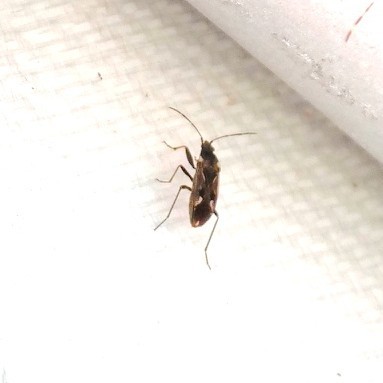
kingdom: Animalia
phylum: Arthropoda
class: Insecta
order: Hemiptera
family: Rhyparochromidae
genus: Rhyparochromus
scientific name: Rhyparochromus vulgaris
